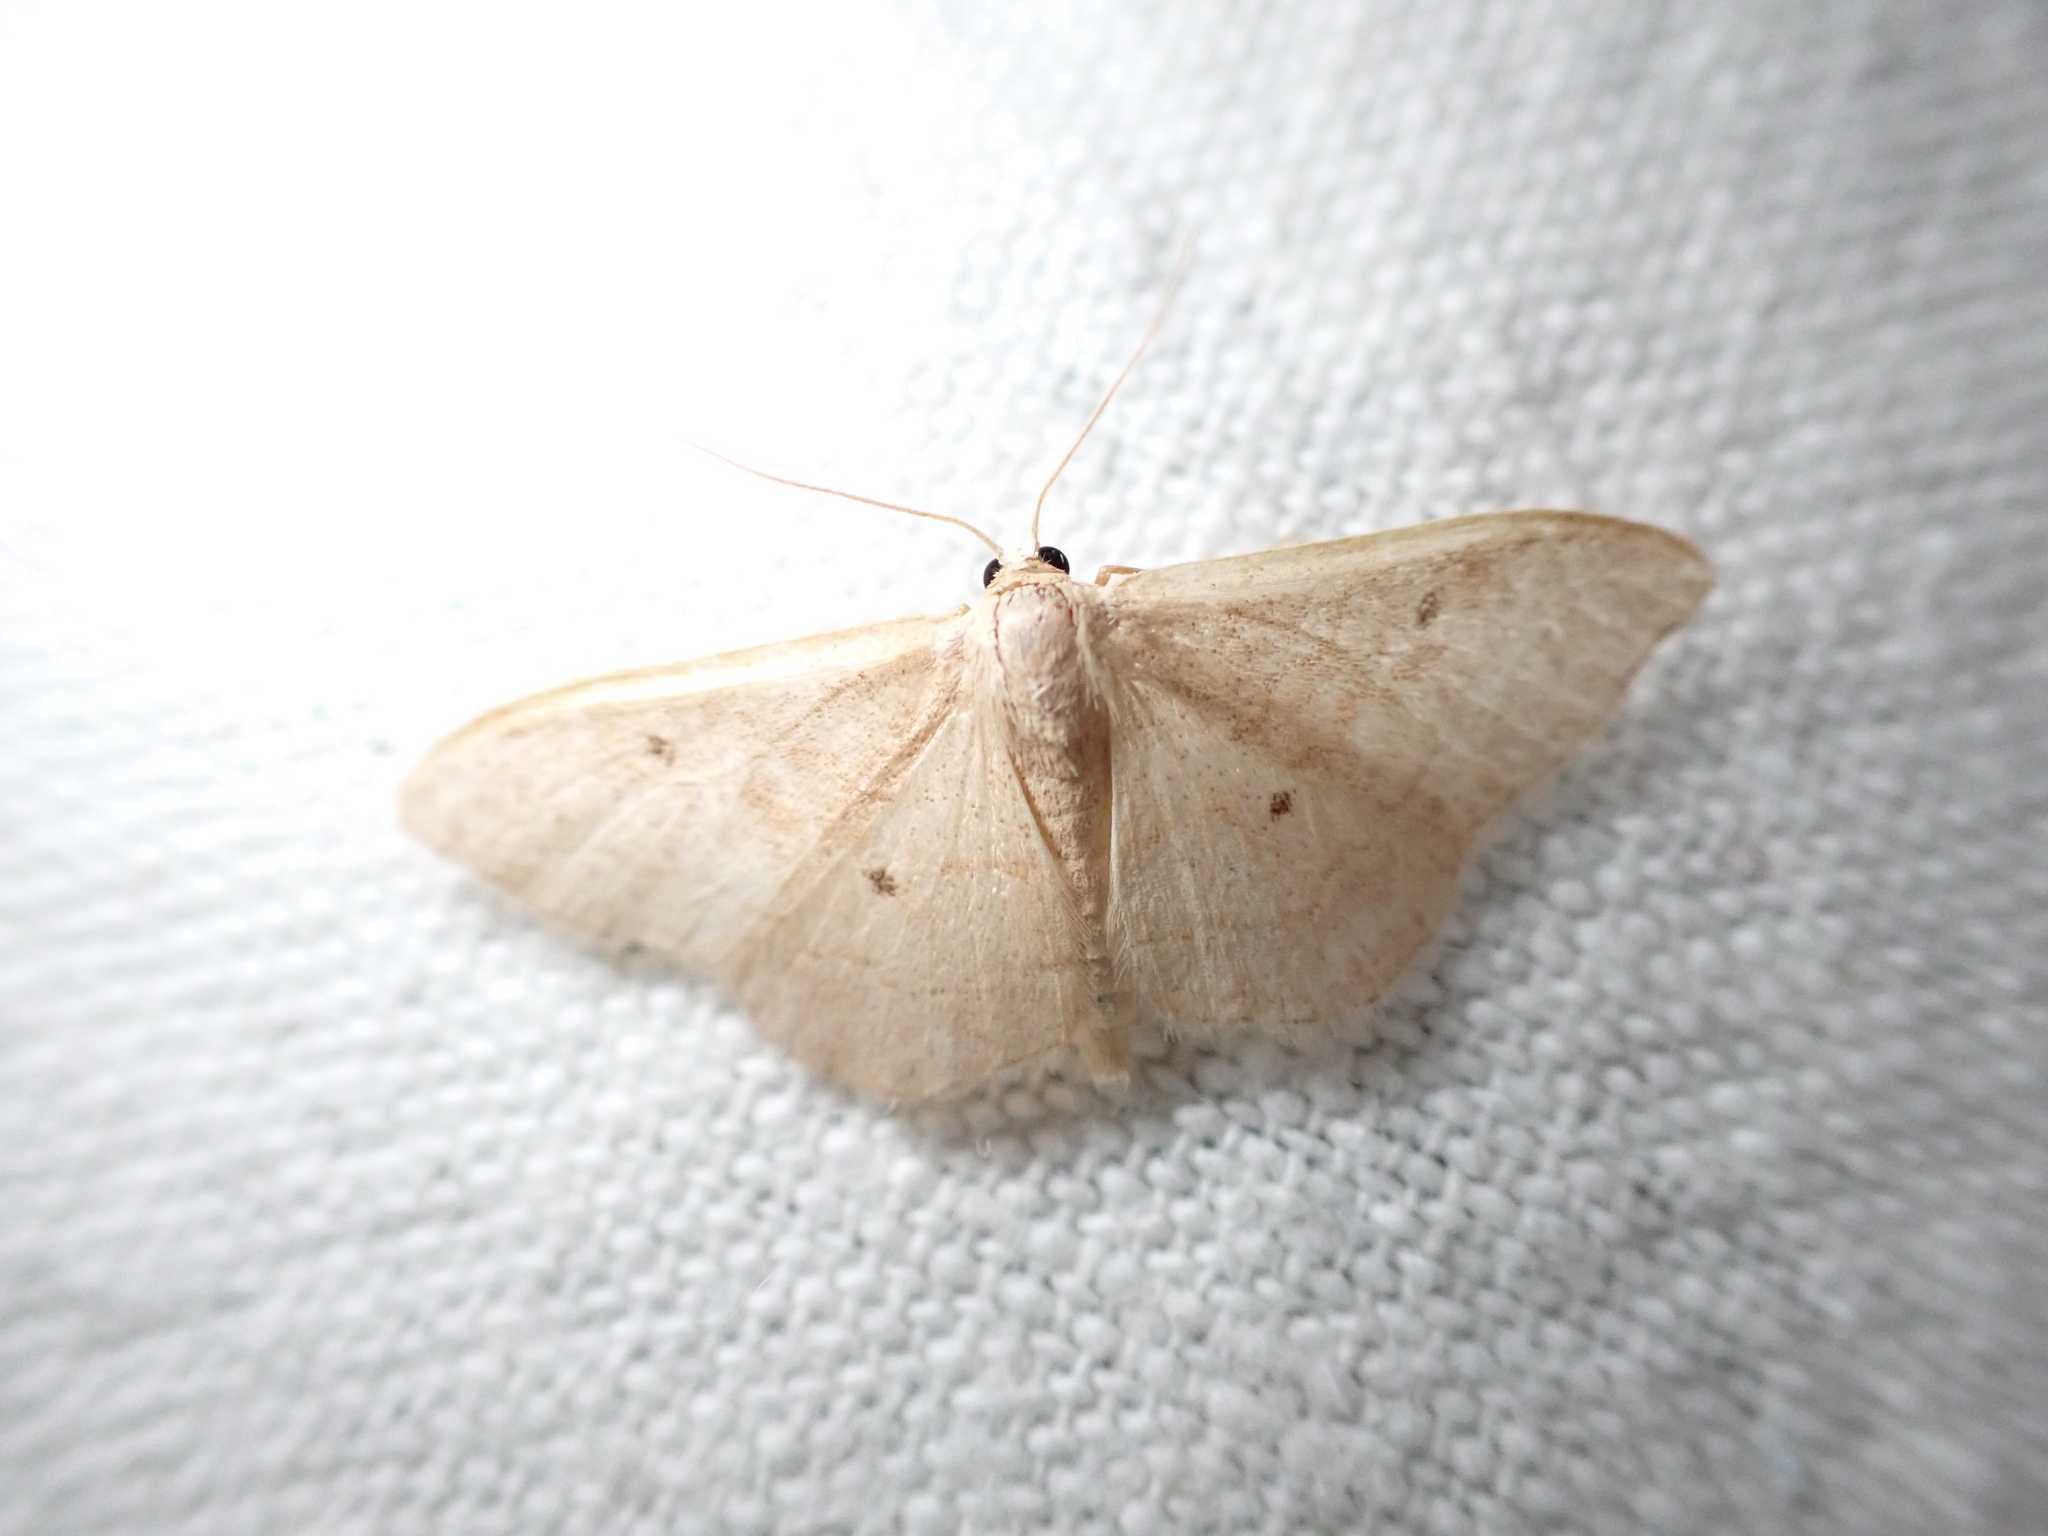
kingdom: Animalia
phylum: Arthropoda
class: Insecta
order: Lepidoptera
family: Geometridae
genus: Idaea
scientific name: Idaea bilinearia
